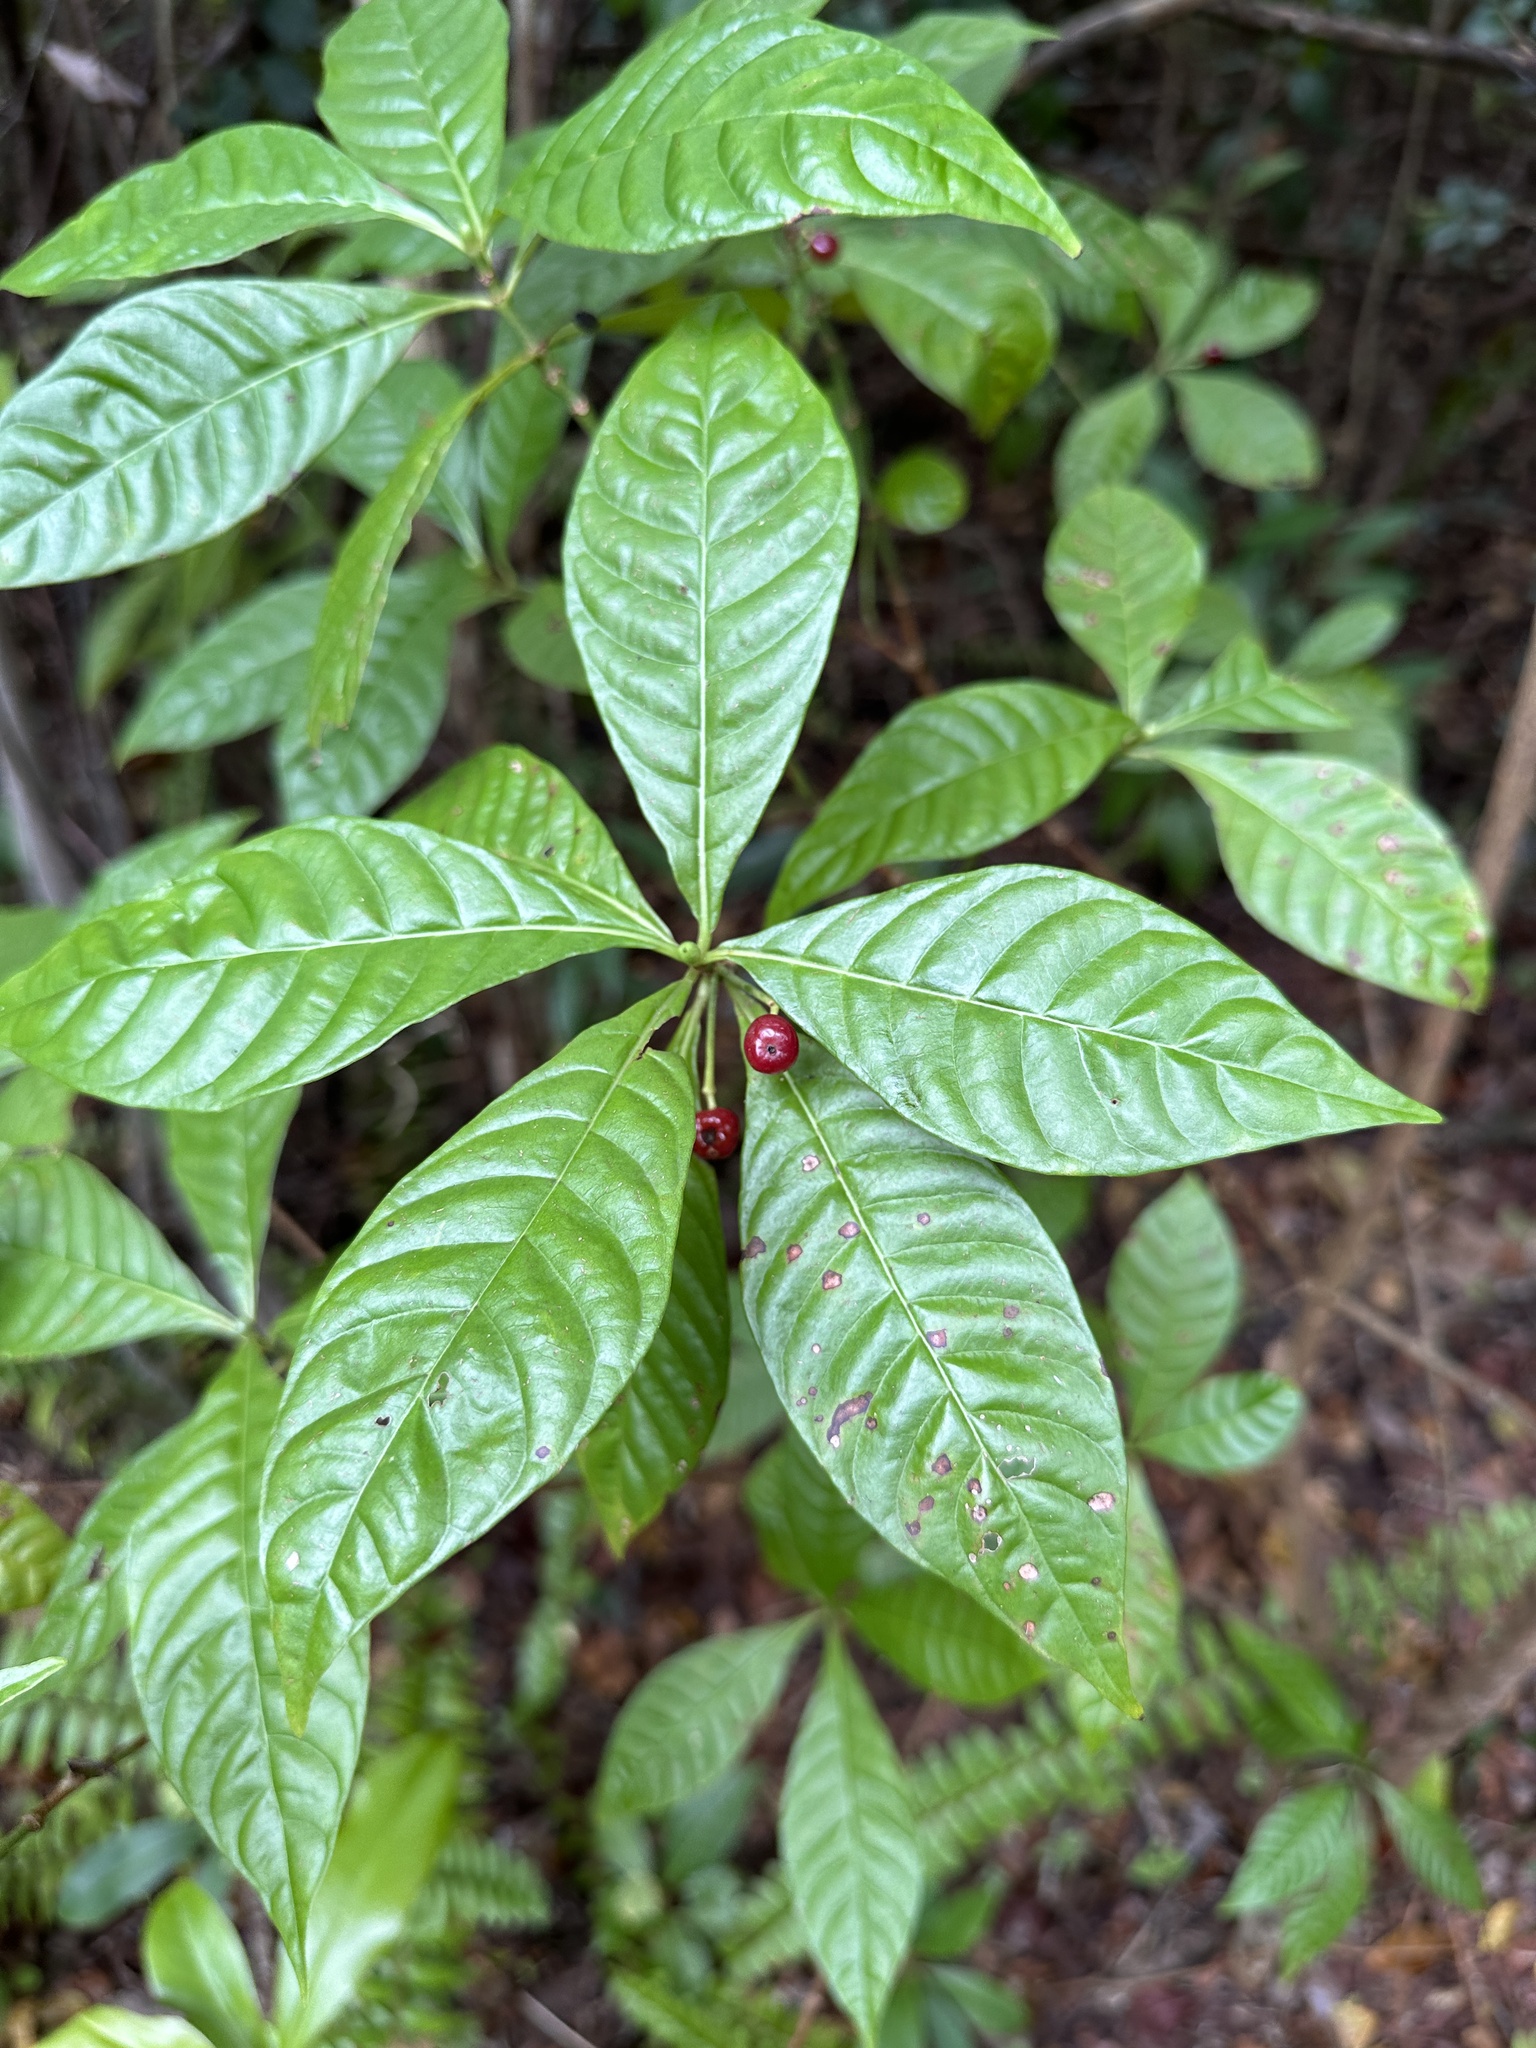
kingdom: Plantae
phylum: Tracheophyta
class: Magnoliopsida
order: Gentianales
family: Rubiaceae
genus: Psychotria
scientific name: Psychotria nervosa
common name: Bastard cankerberry
